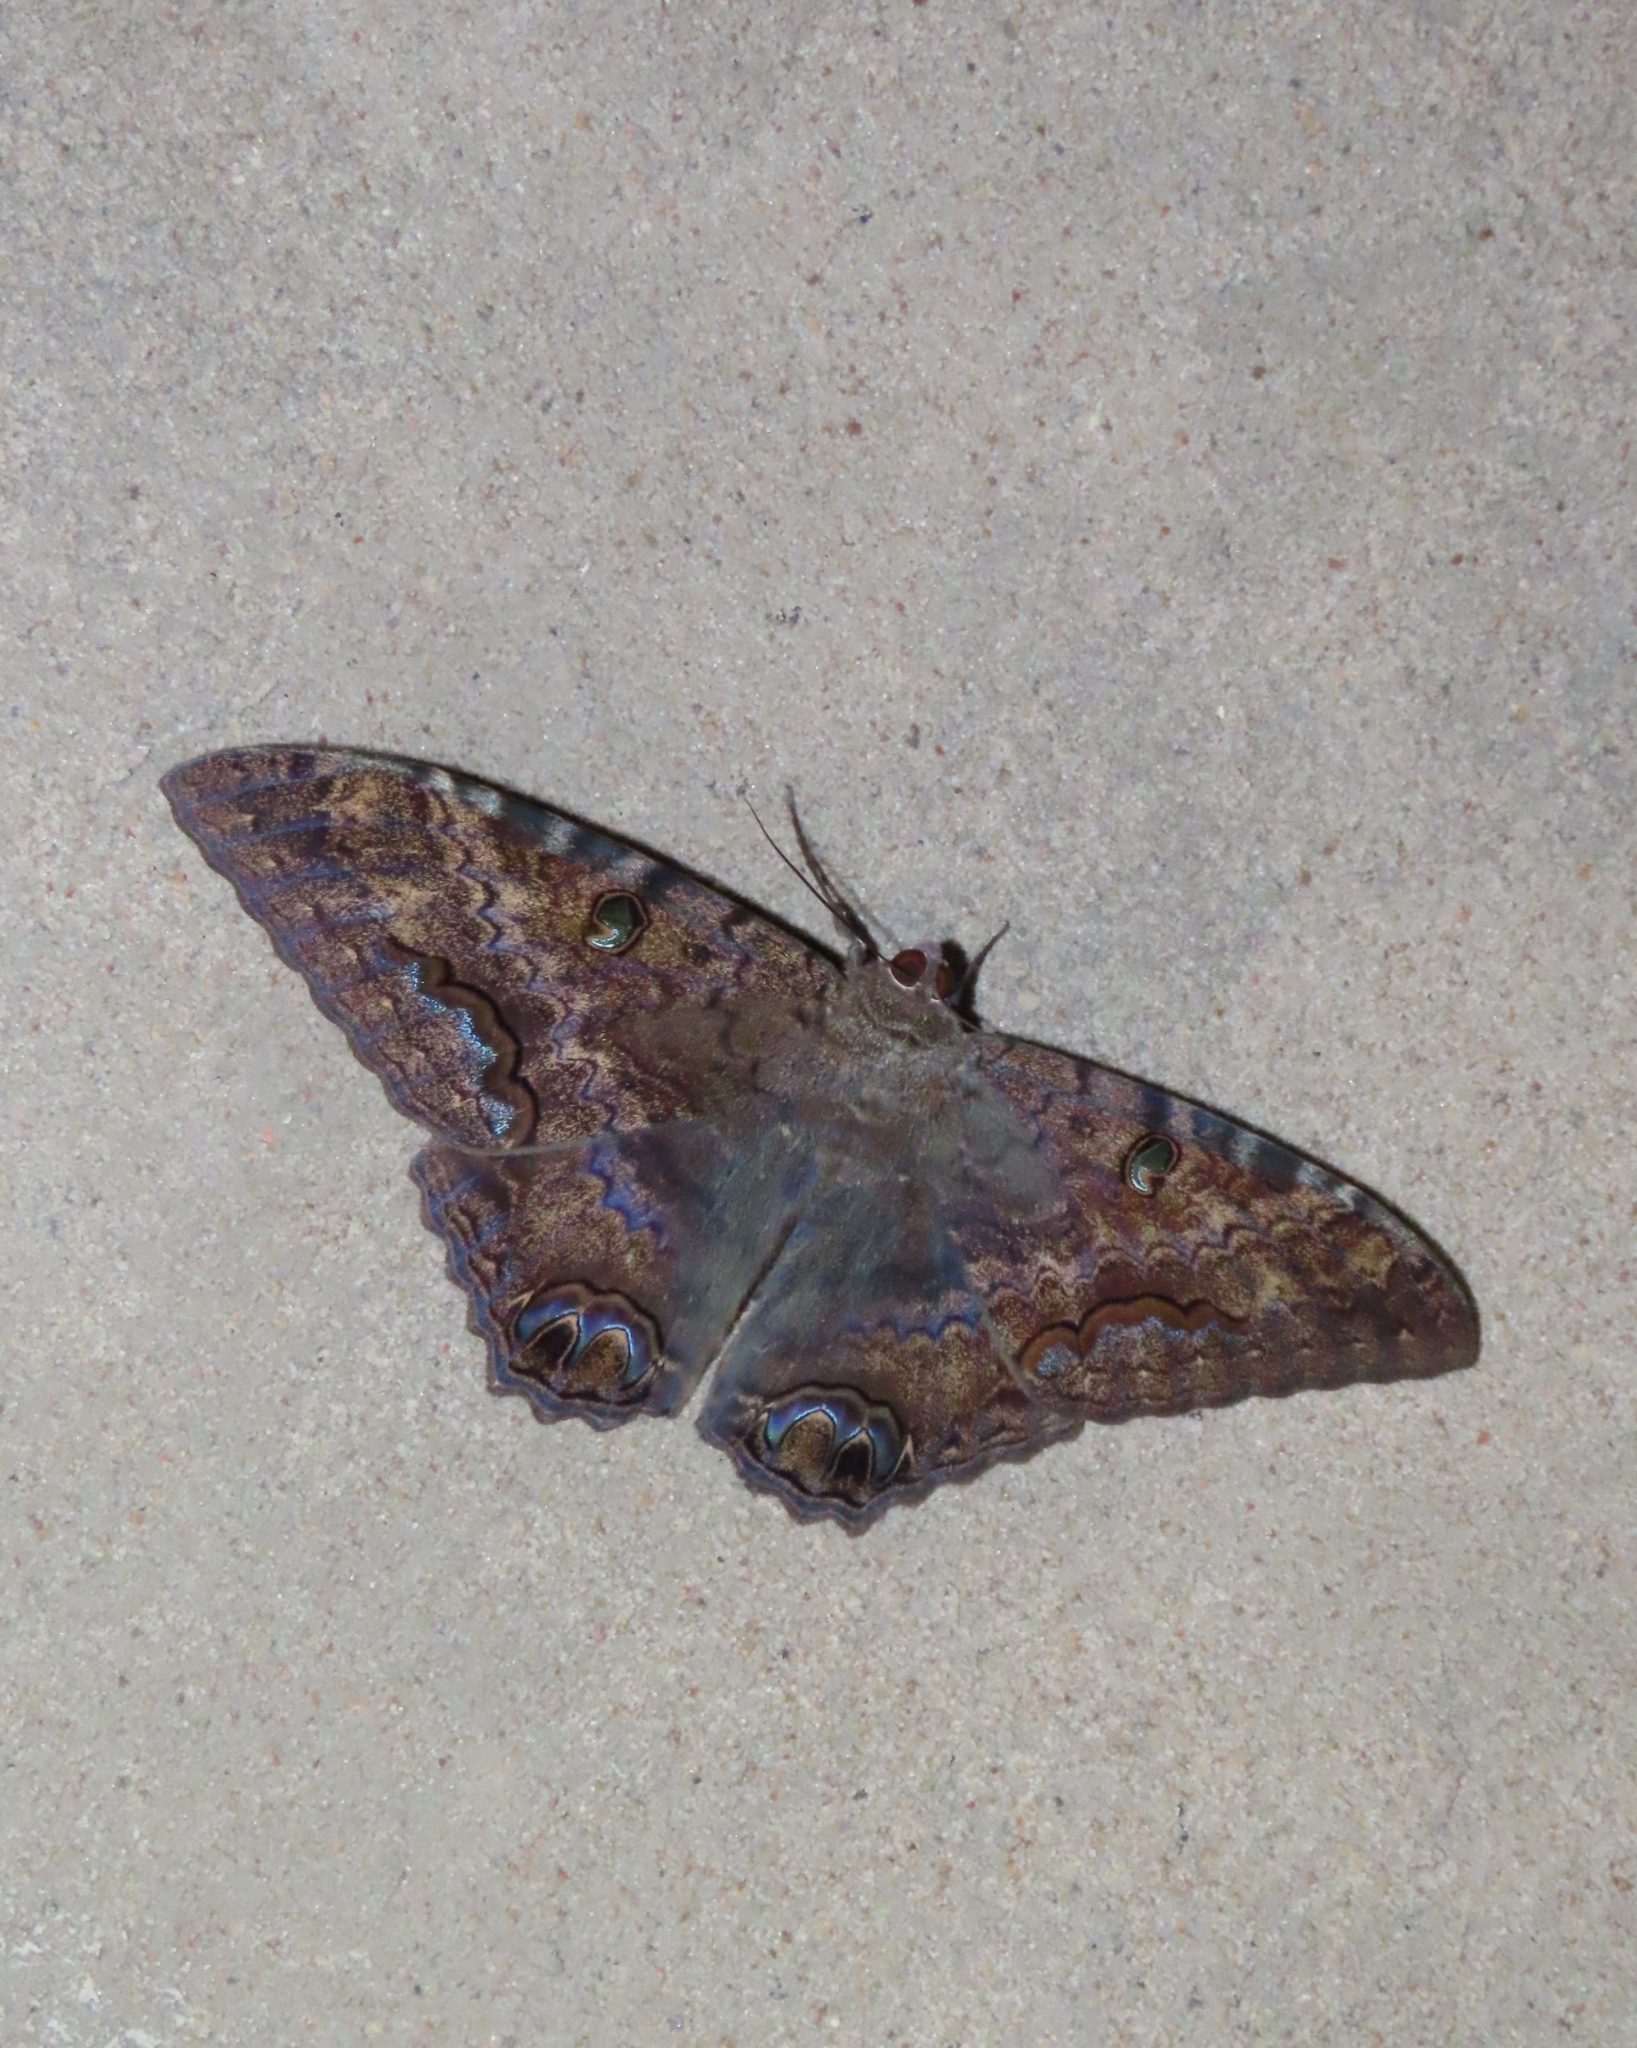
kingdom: Animalia
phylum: Arthropoda
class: Insecta
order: Lepidoptera
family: Erebidae
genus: Ascalapha
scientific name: Ascalapha odorata
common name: Black witch
